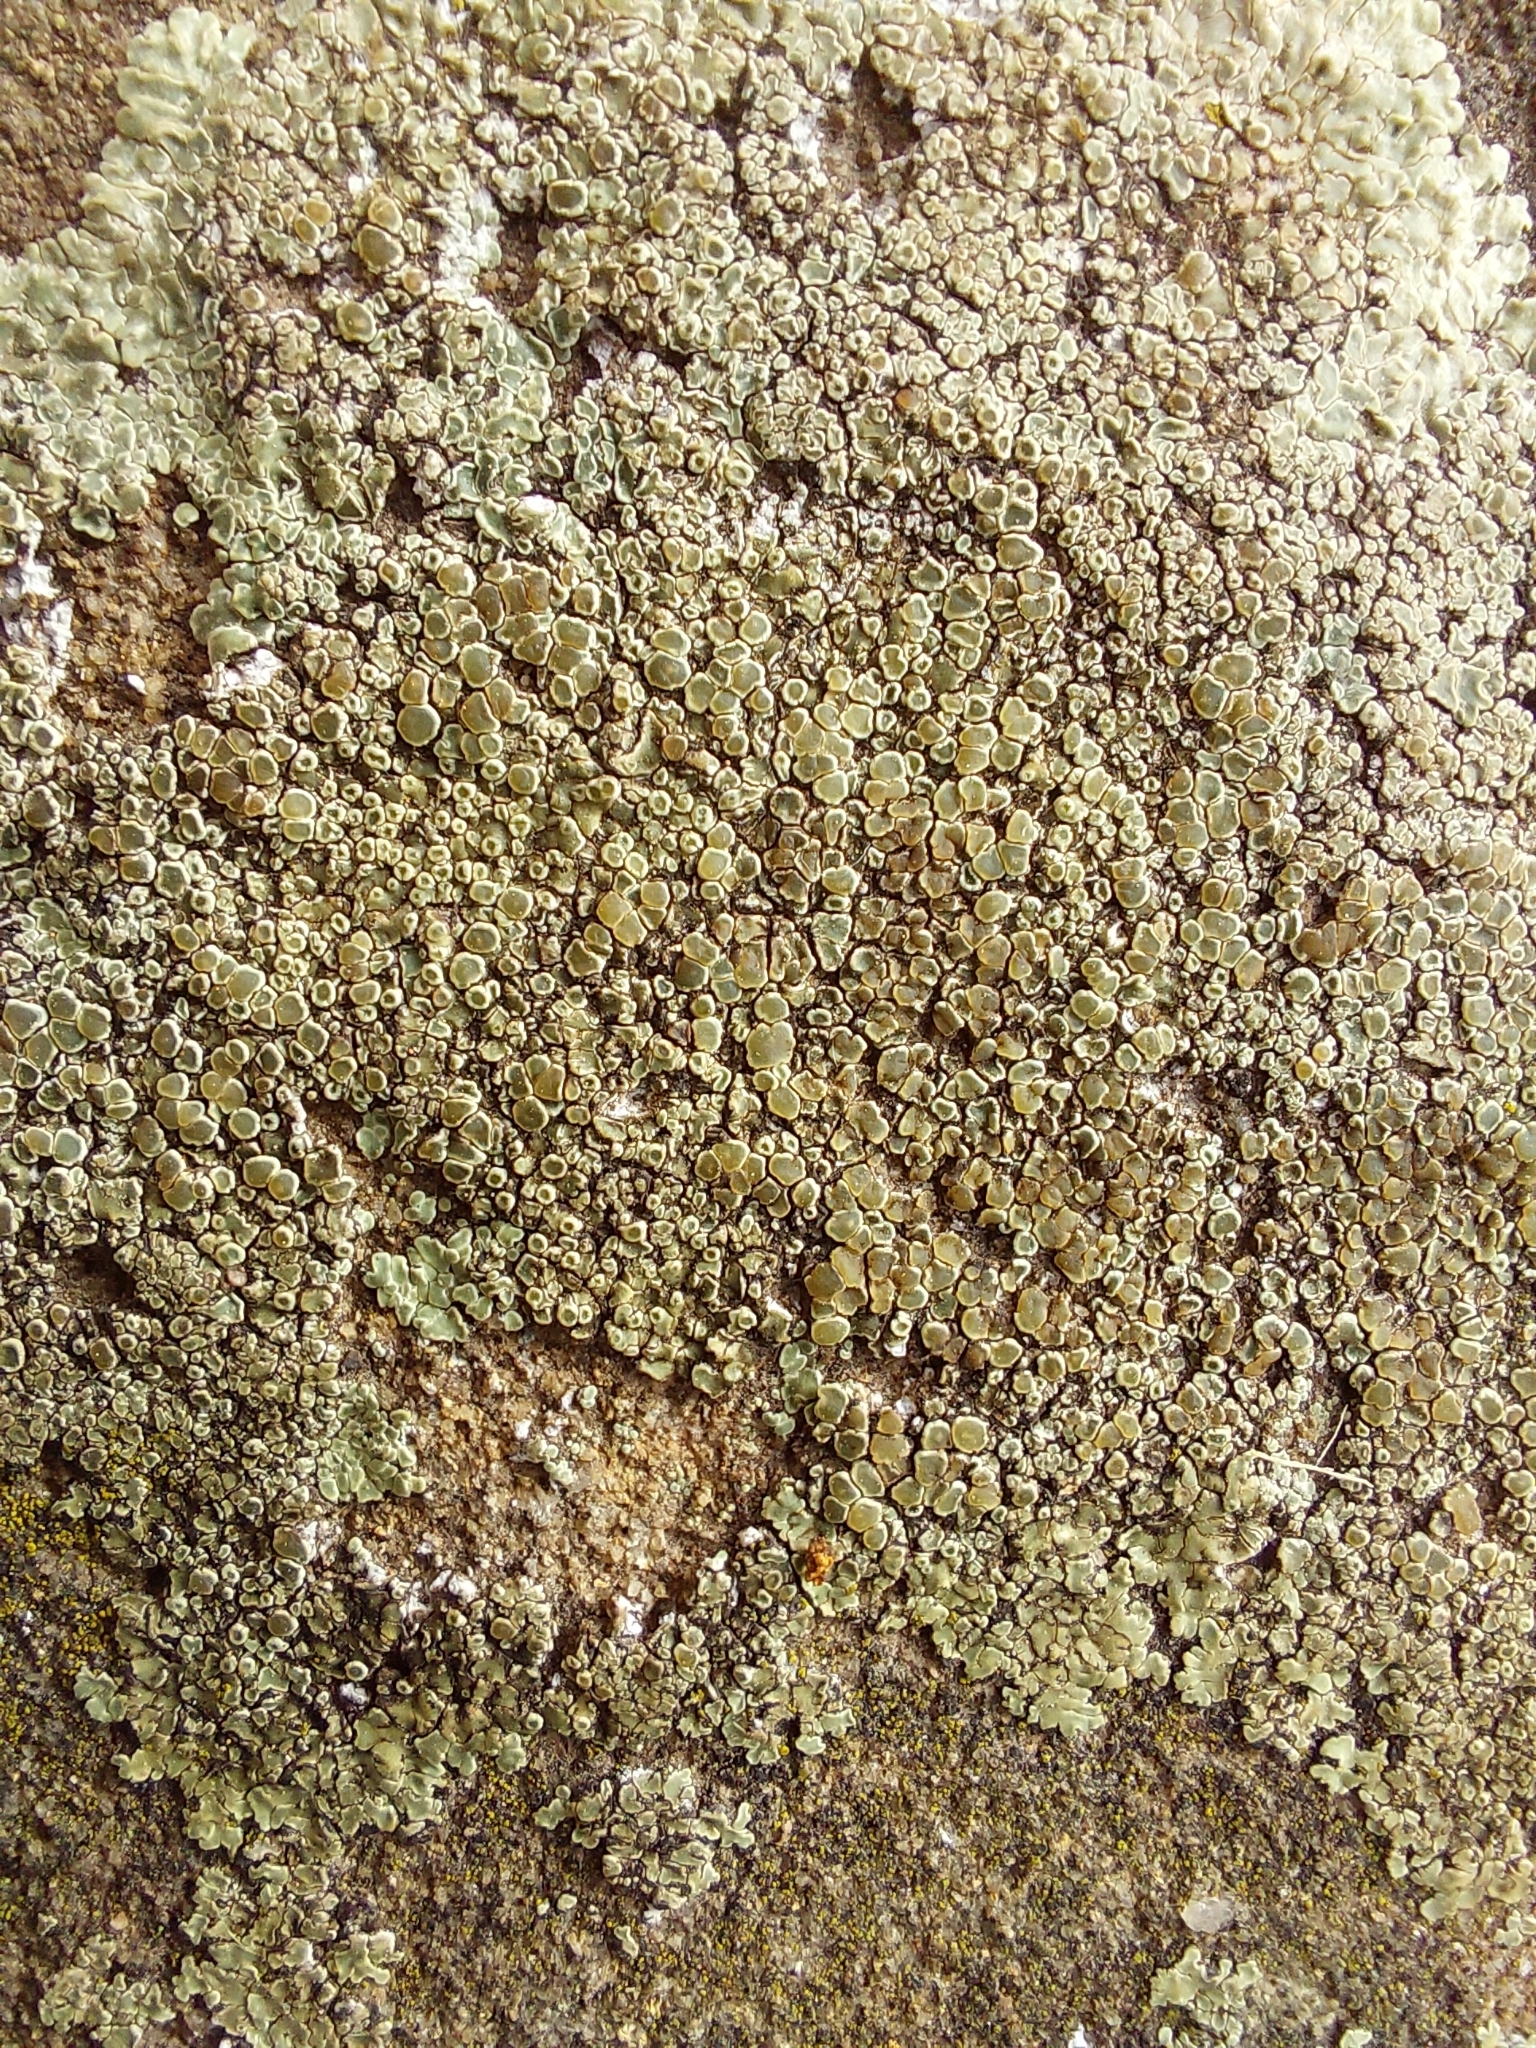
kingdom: Fungi
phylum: Ascomycota
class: Lecanoromycetes
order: Lecanorales
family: Lecanoraceae
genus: Protoparmeliopsis
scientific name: Protoparmeliopsis muralis
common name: Stonewall rim lichen
